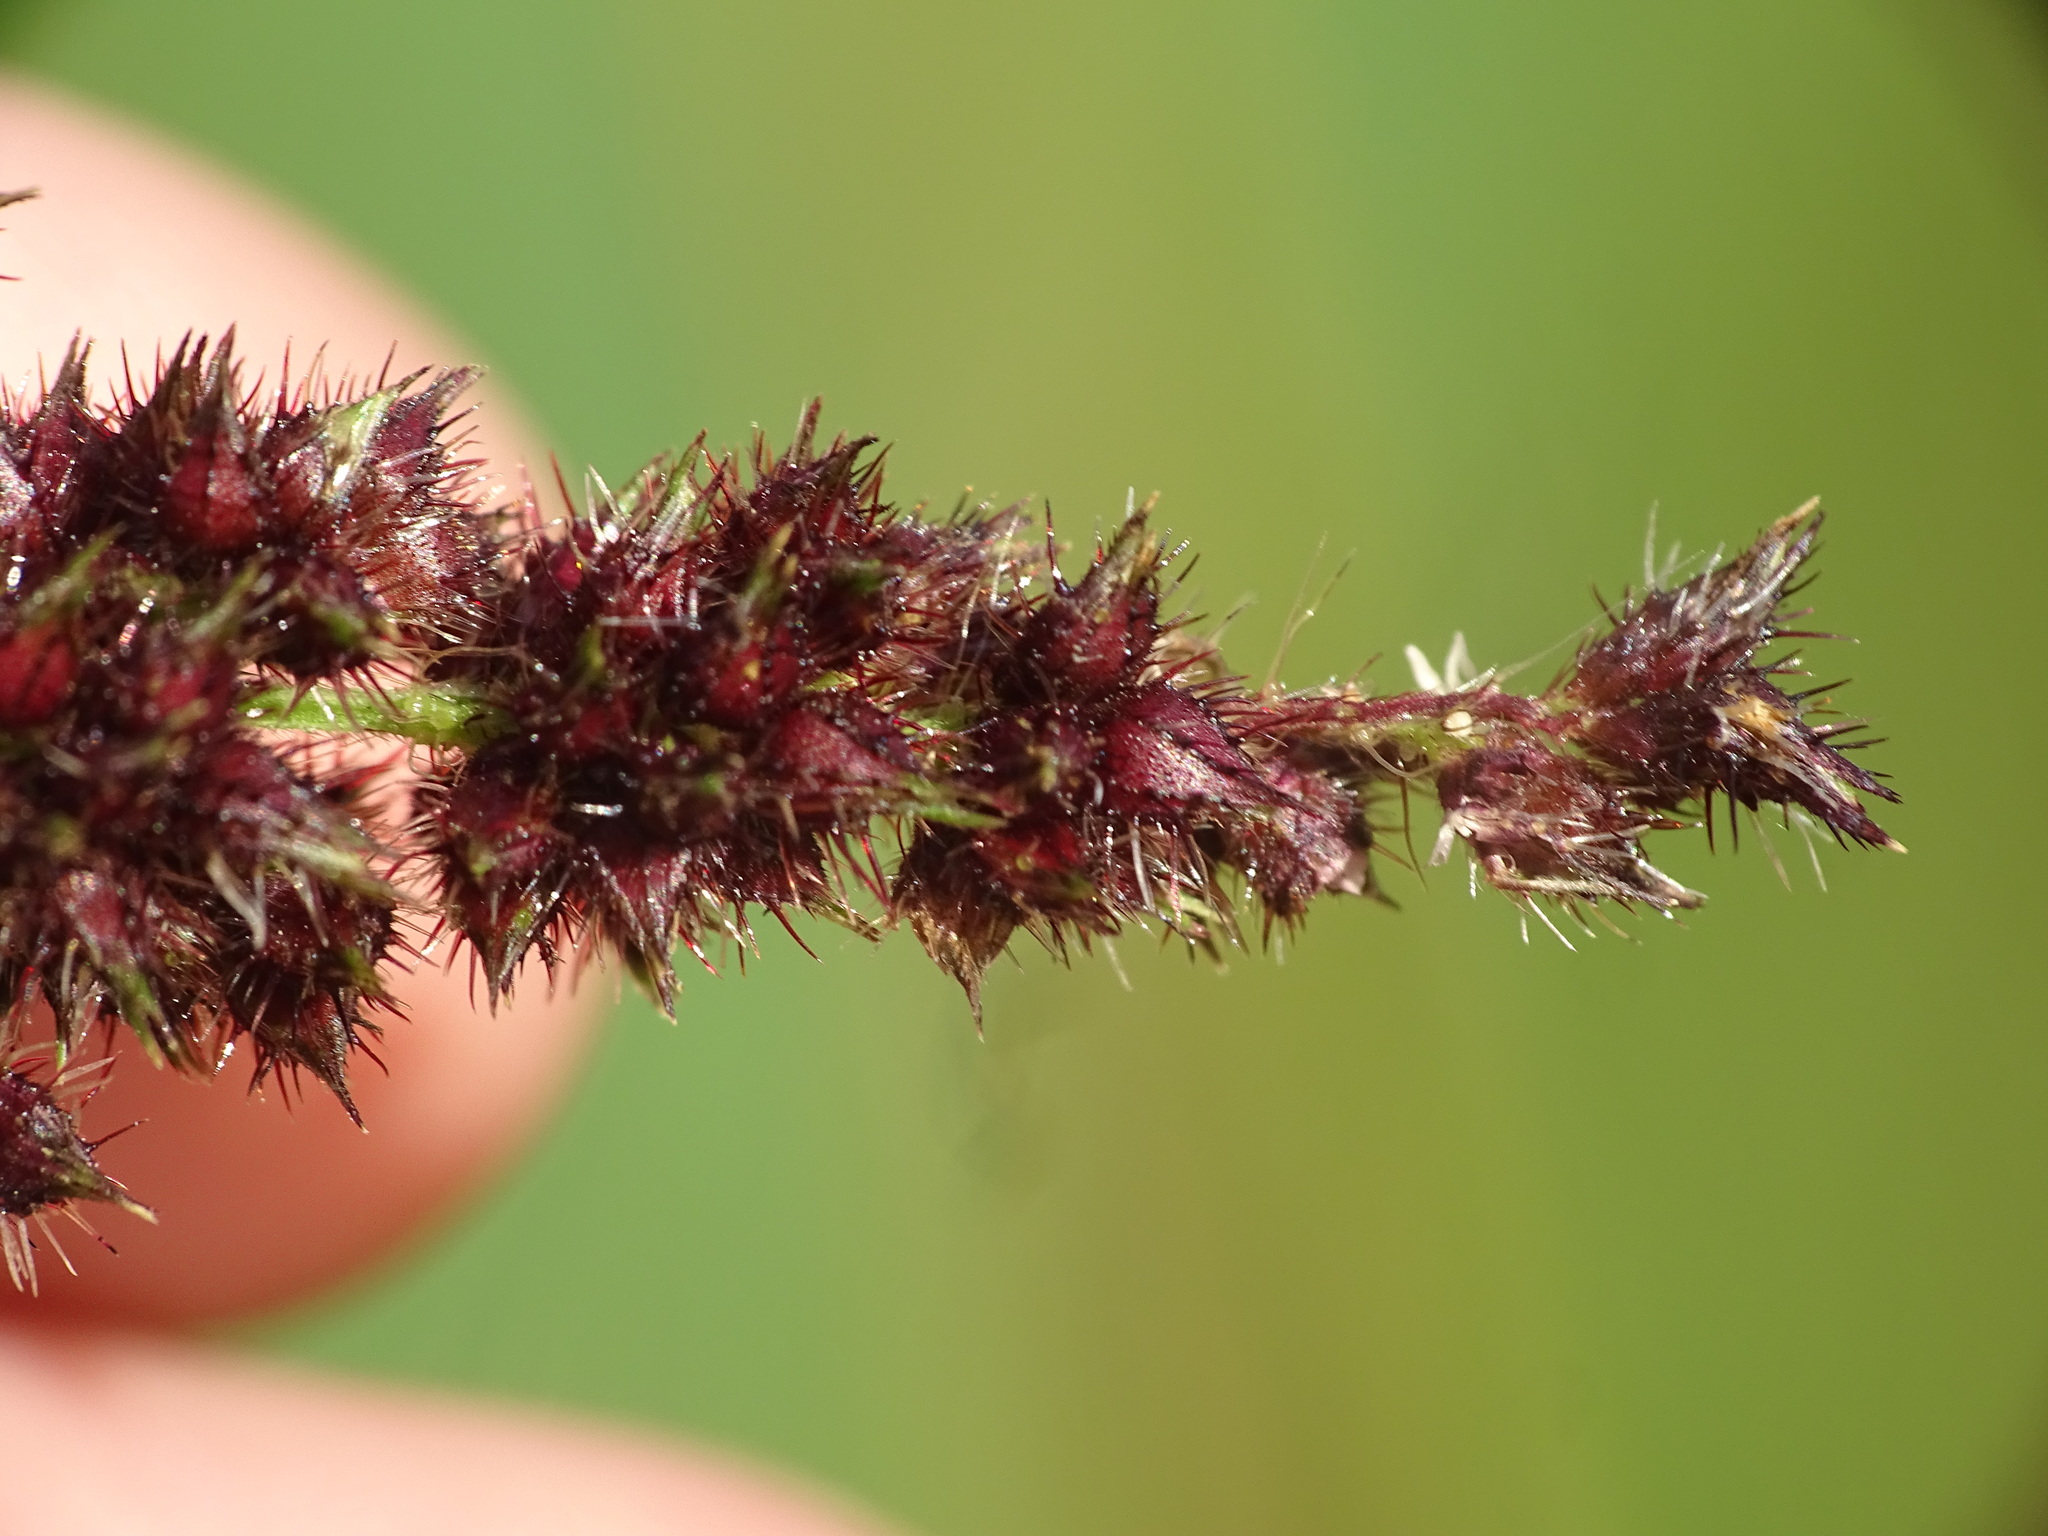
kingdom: Plantae
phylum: Tracheophyta
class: Liliopsida
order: Poales
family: Poaceae
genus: Echinochloa
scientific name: Echinochloa muricata
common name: American barnyard grass
